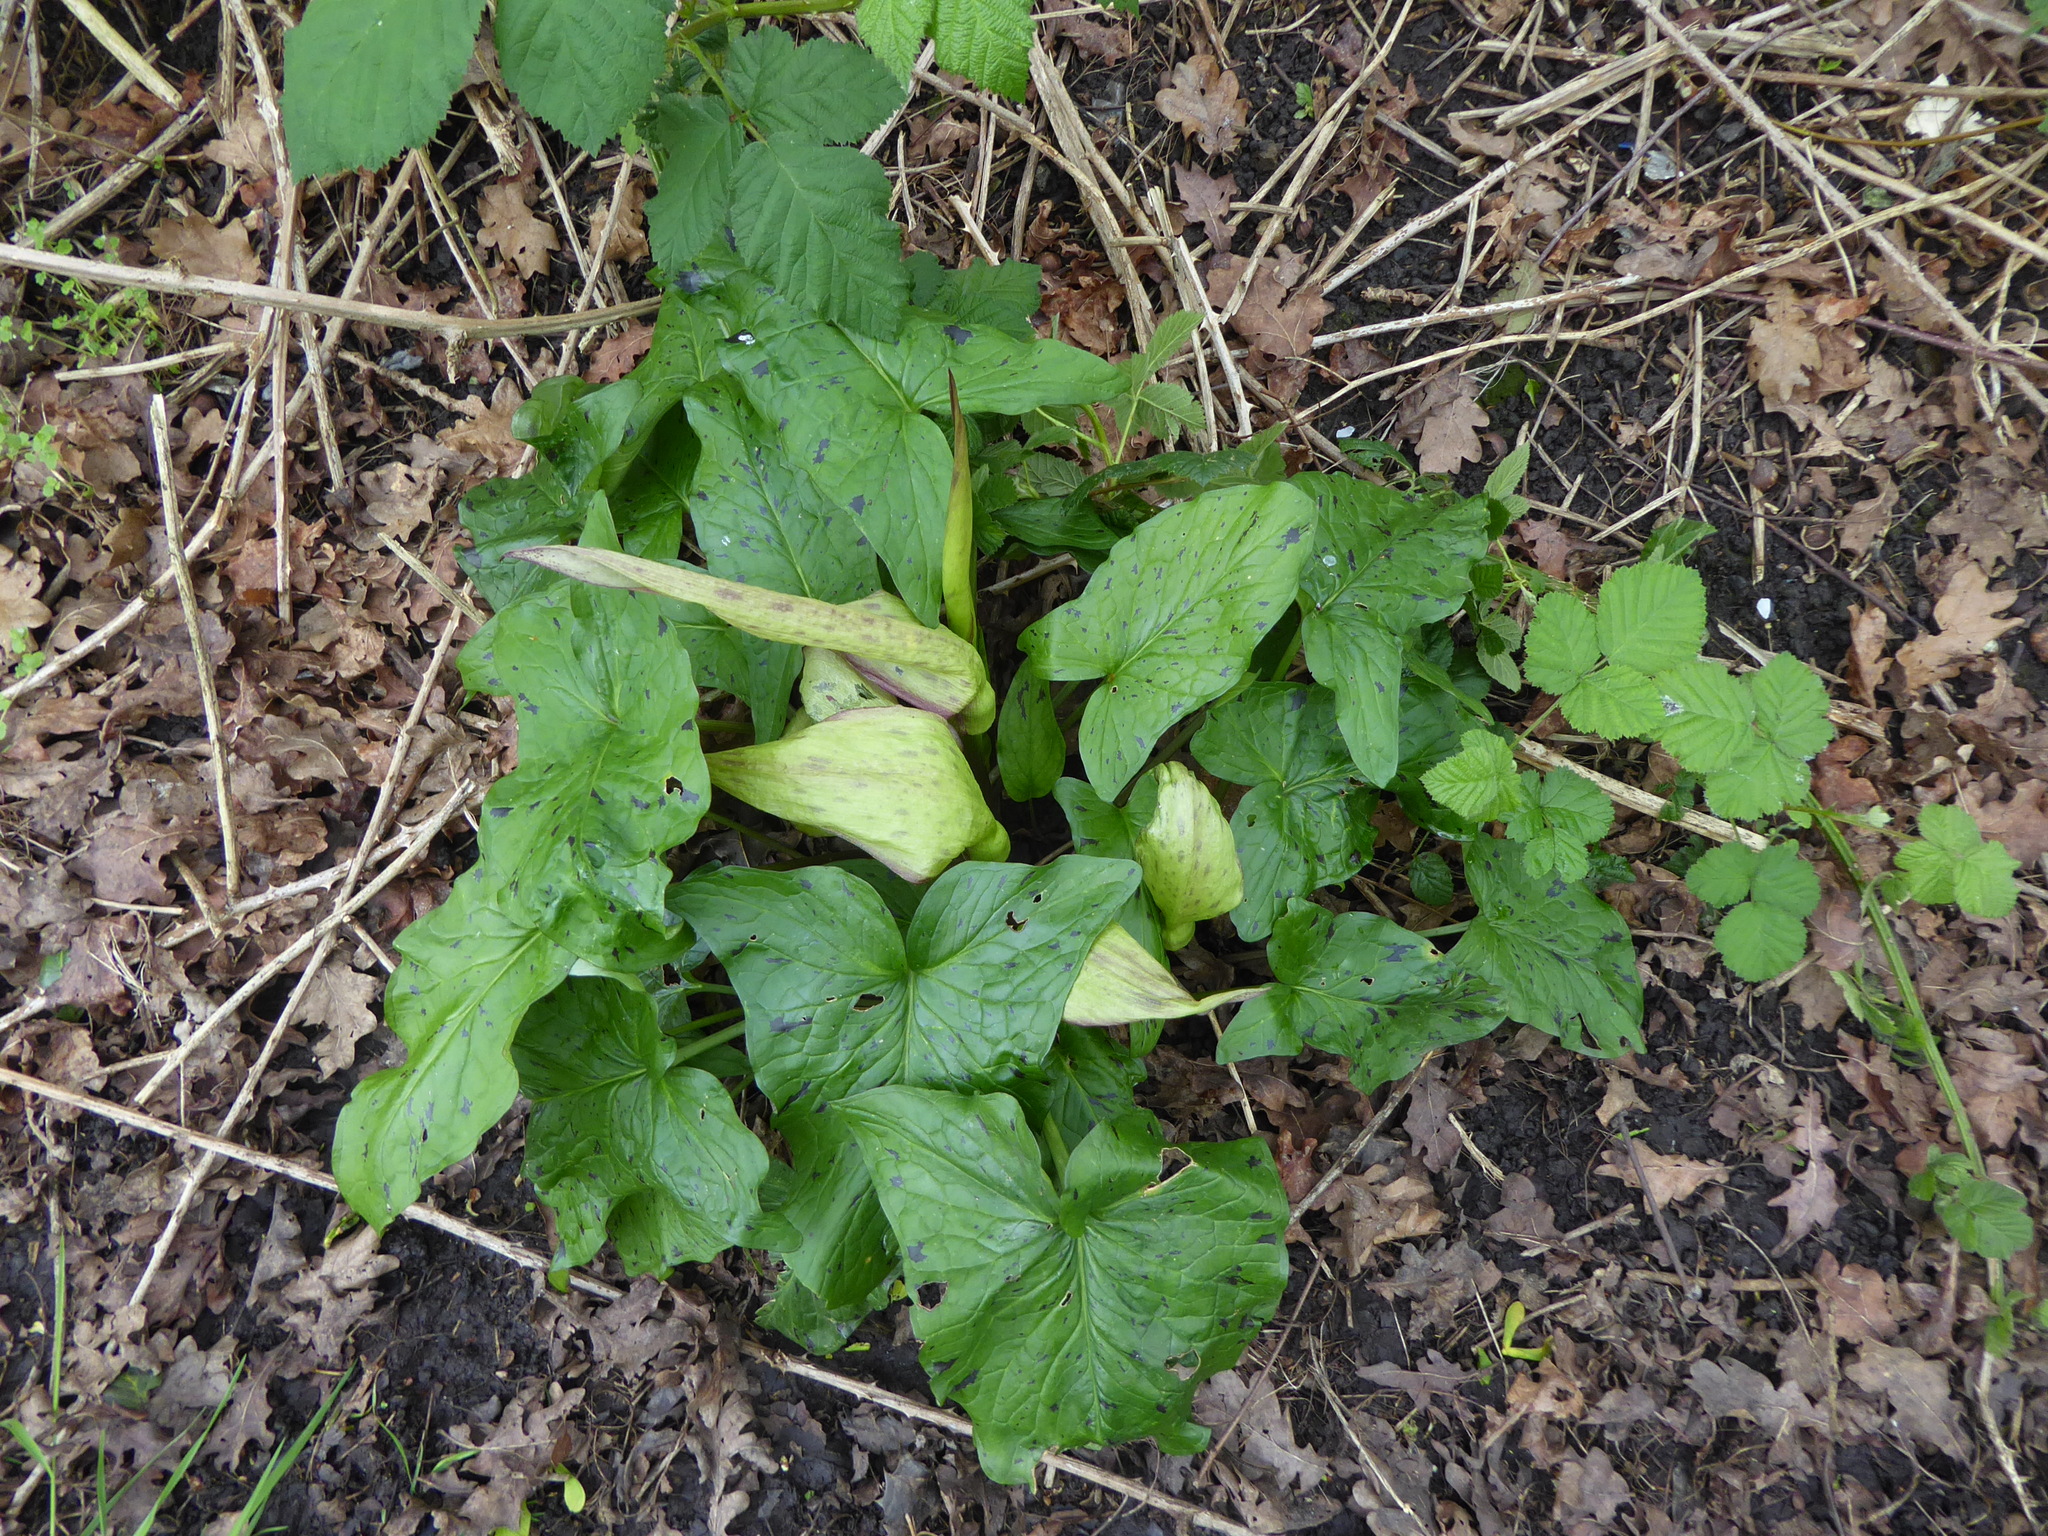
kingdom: Plantae
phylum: Tracheophyta
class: Liliopsida
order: Alismatales
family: Araceae
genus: Arum
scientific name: Arum maculatum
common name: Lords-and-ladies
